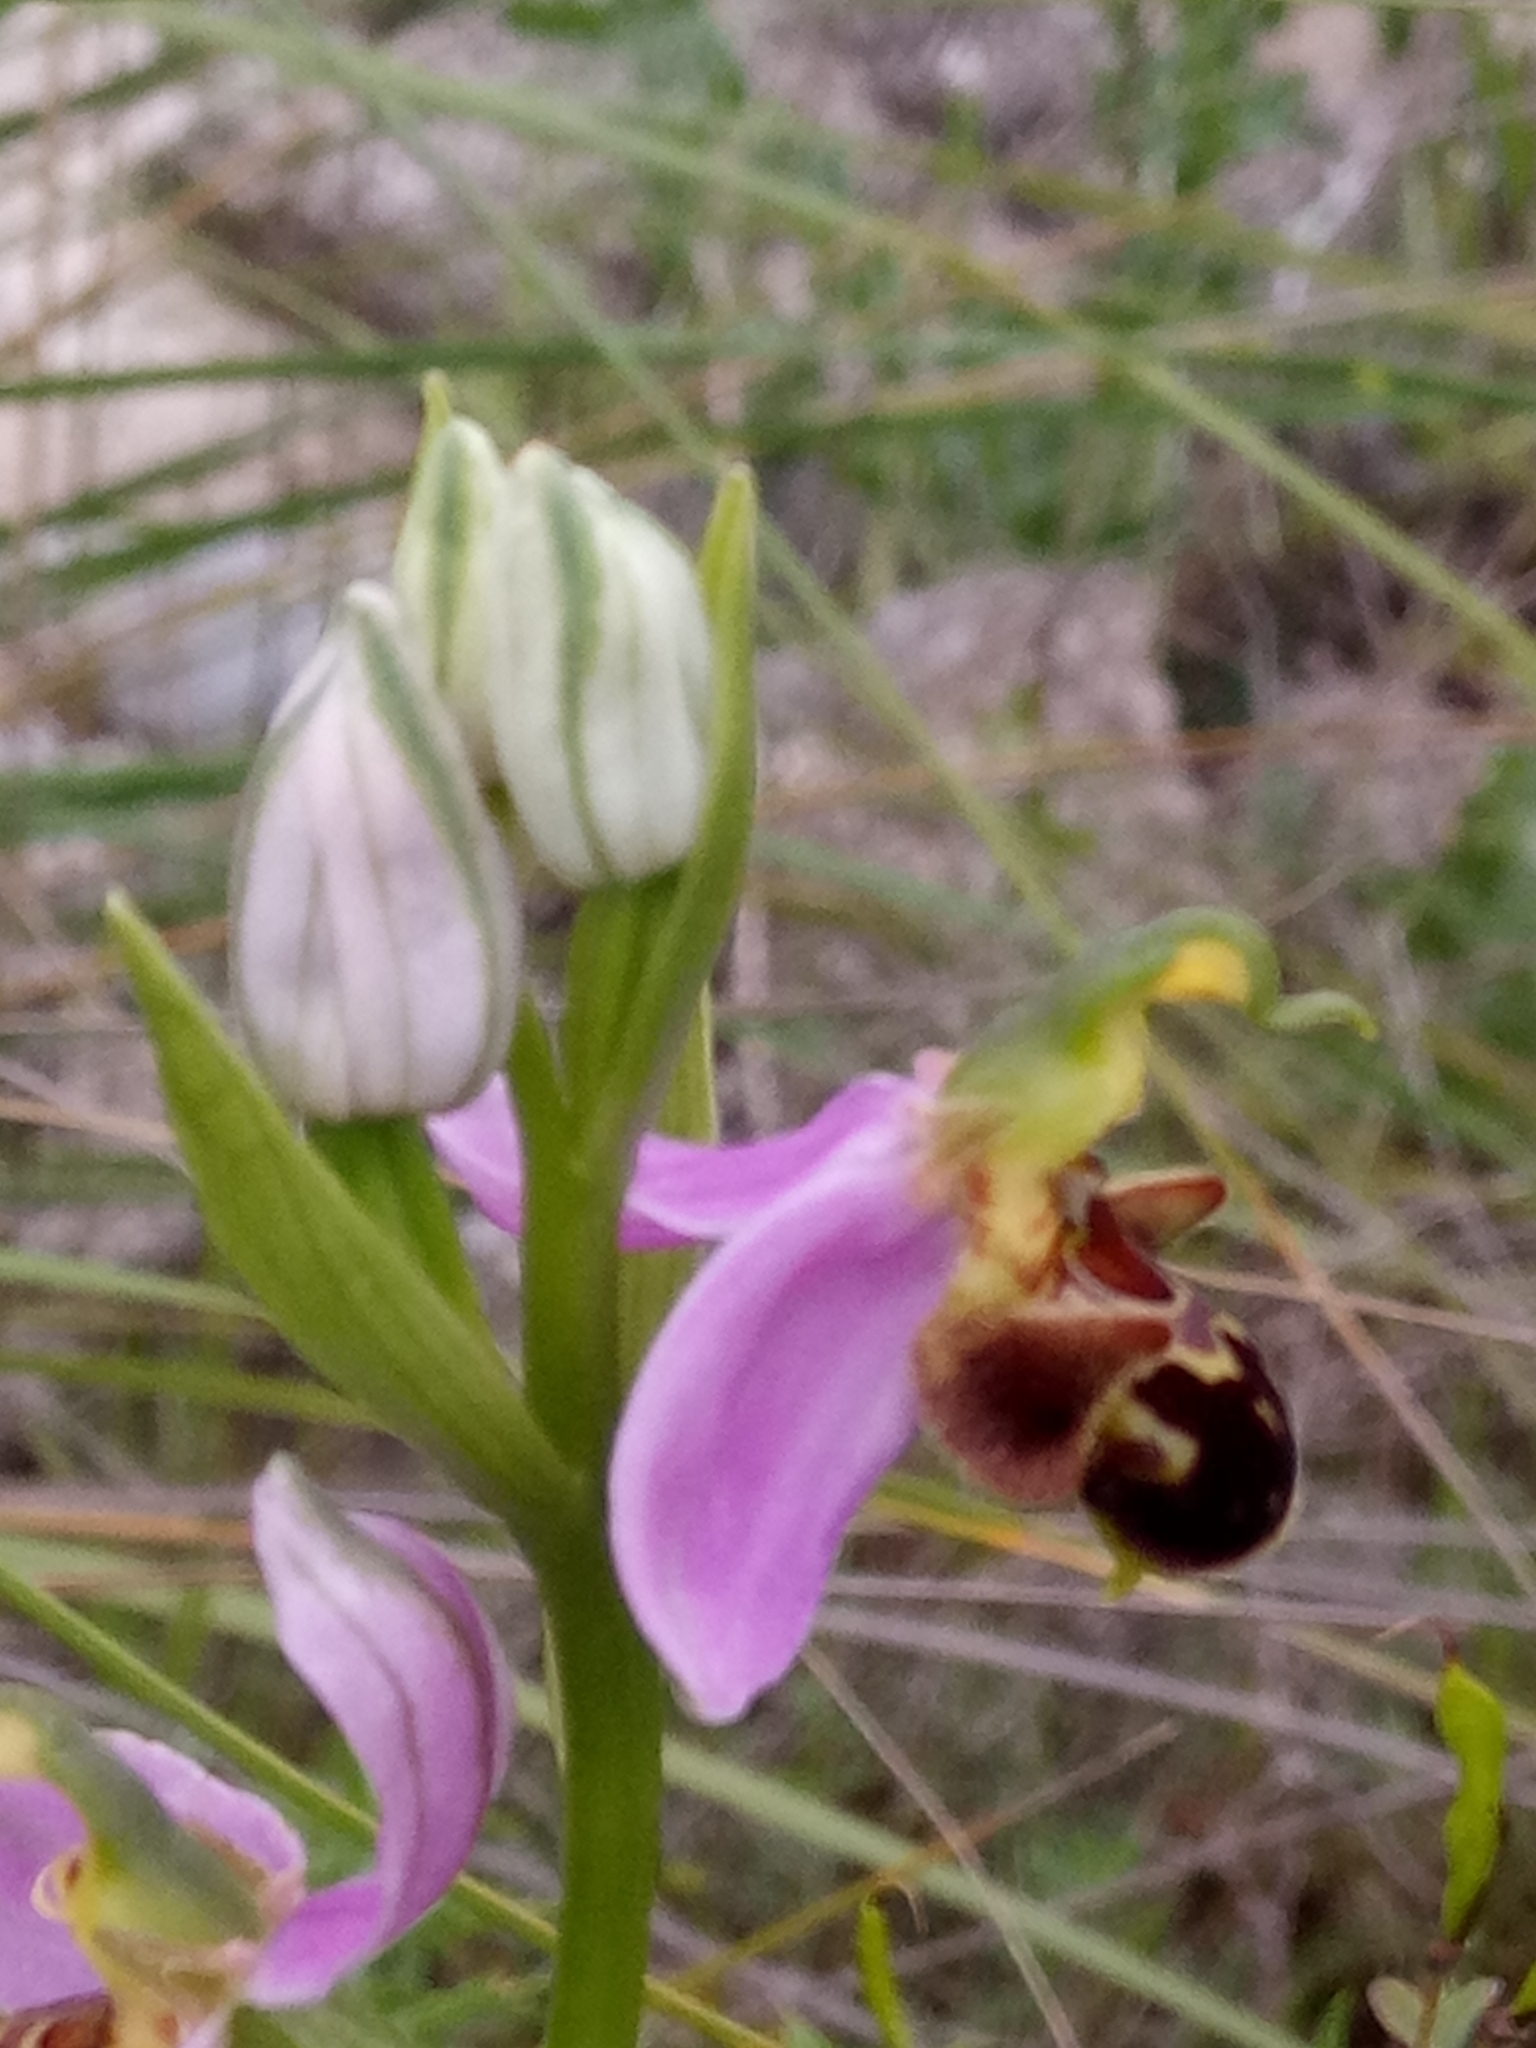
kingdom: Plantae
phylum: Tracheophyta
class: Liliopsida
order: Asparagales
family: Orchidaceae
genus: Ophrys
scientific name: Ophrys apifera
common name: Bee orchid
